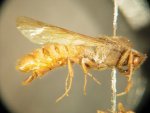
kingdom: Animalia
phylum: Arthropoda
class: Insecta
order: Hymenoptera
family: Formicidae
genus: Eciton
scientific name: Eciton hamatum
